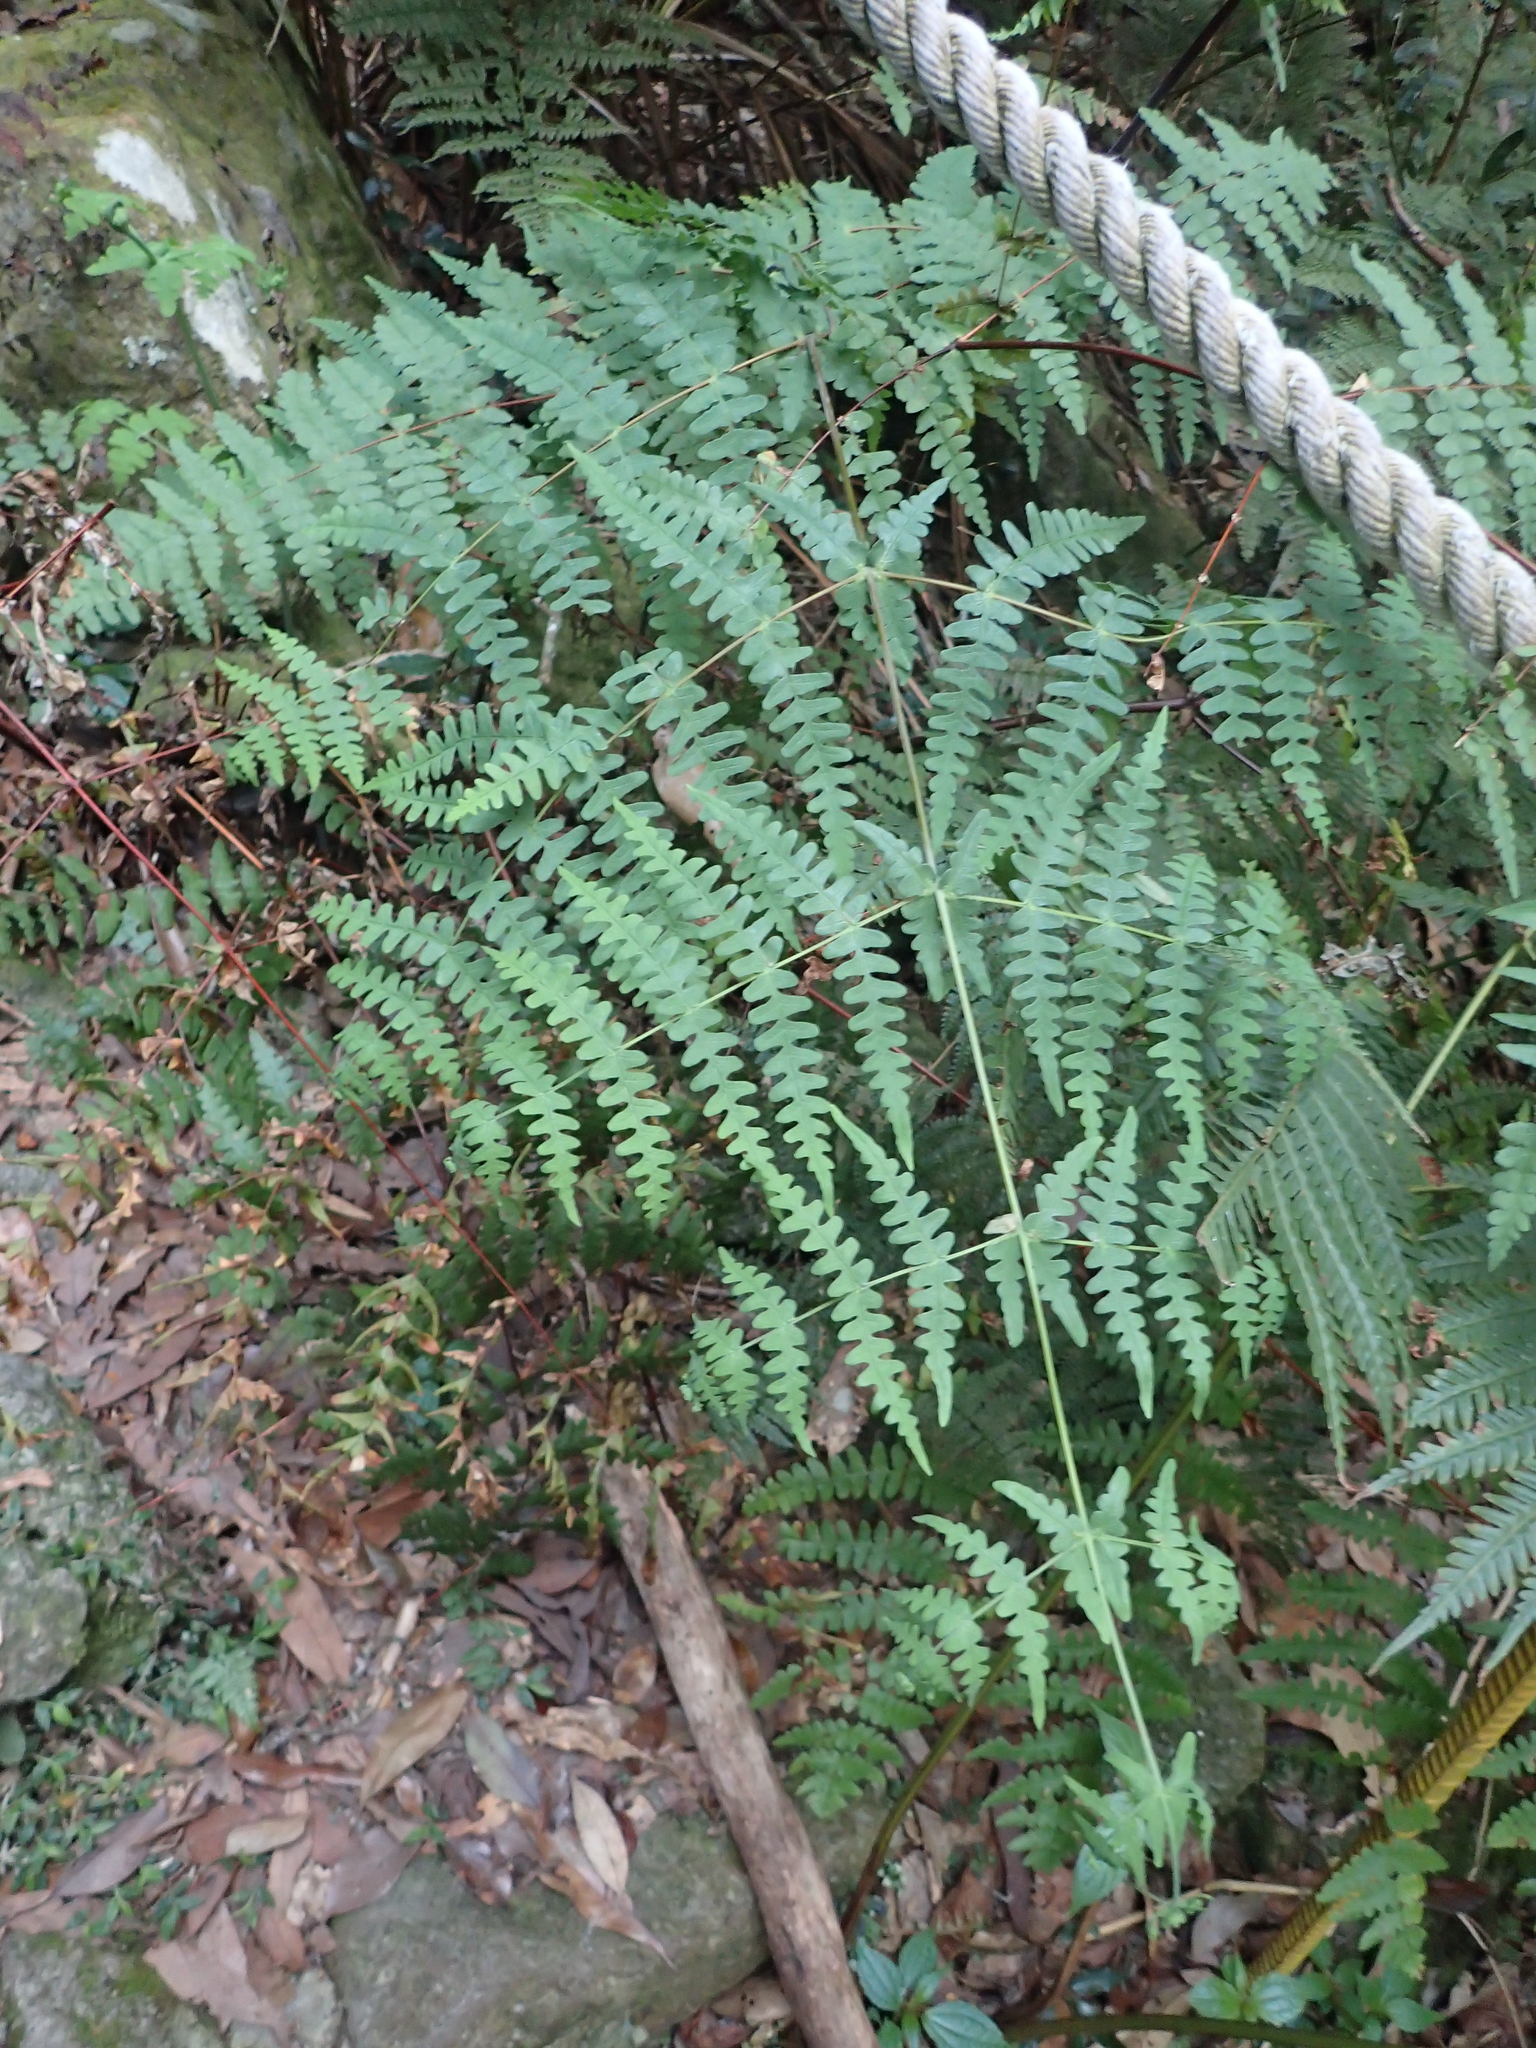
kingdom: Plantae
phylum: Tracheophyta
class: Polypodiopsida
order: Polypodiales
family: Dennstaedtiaceae
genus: Histiopteris
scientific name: Histiopteris incisa
